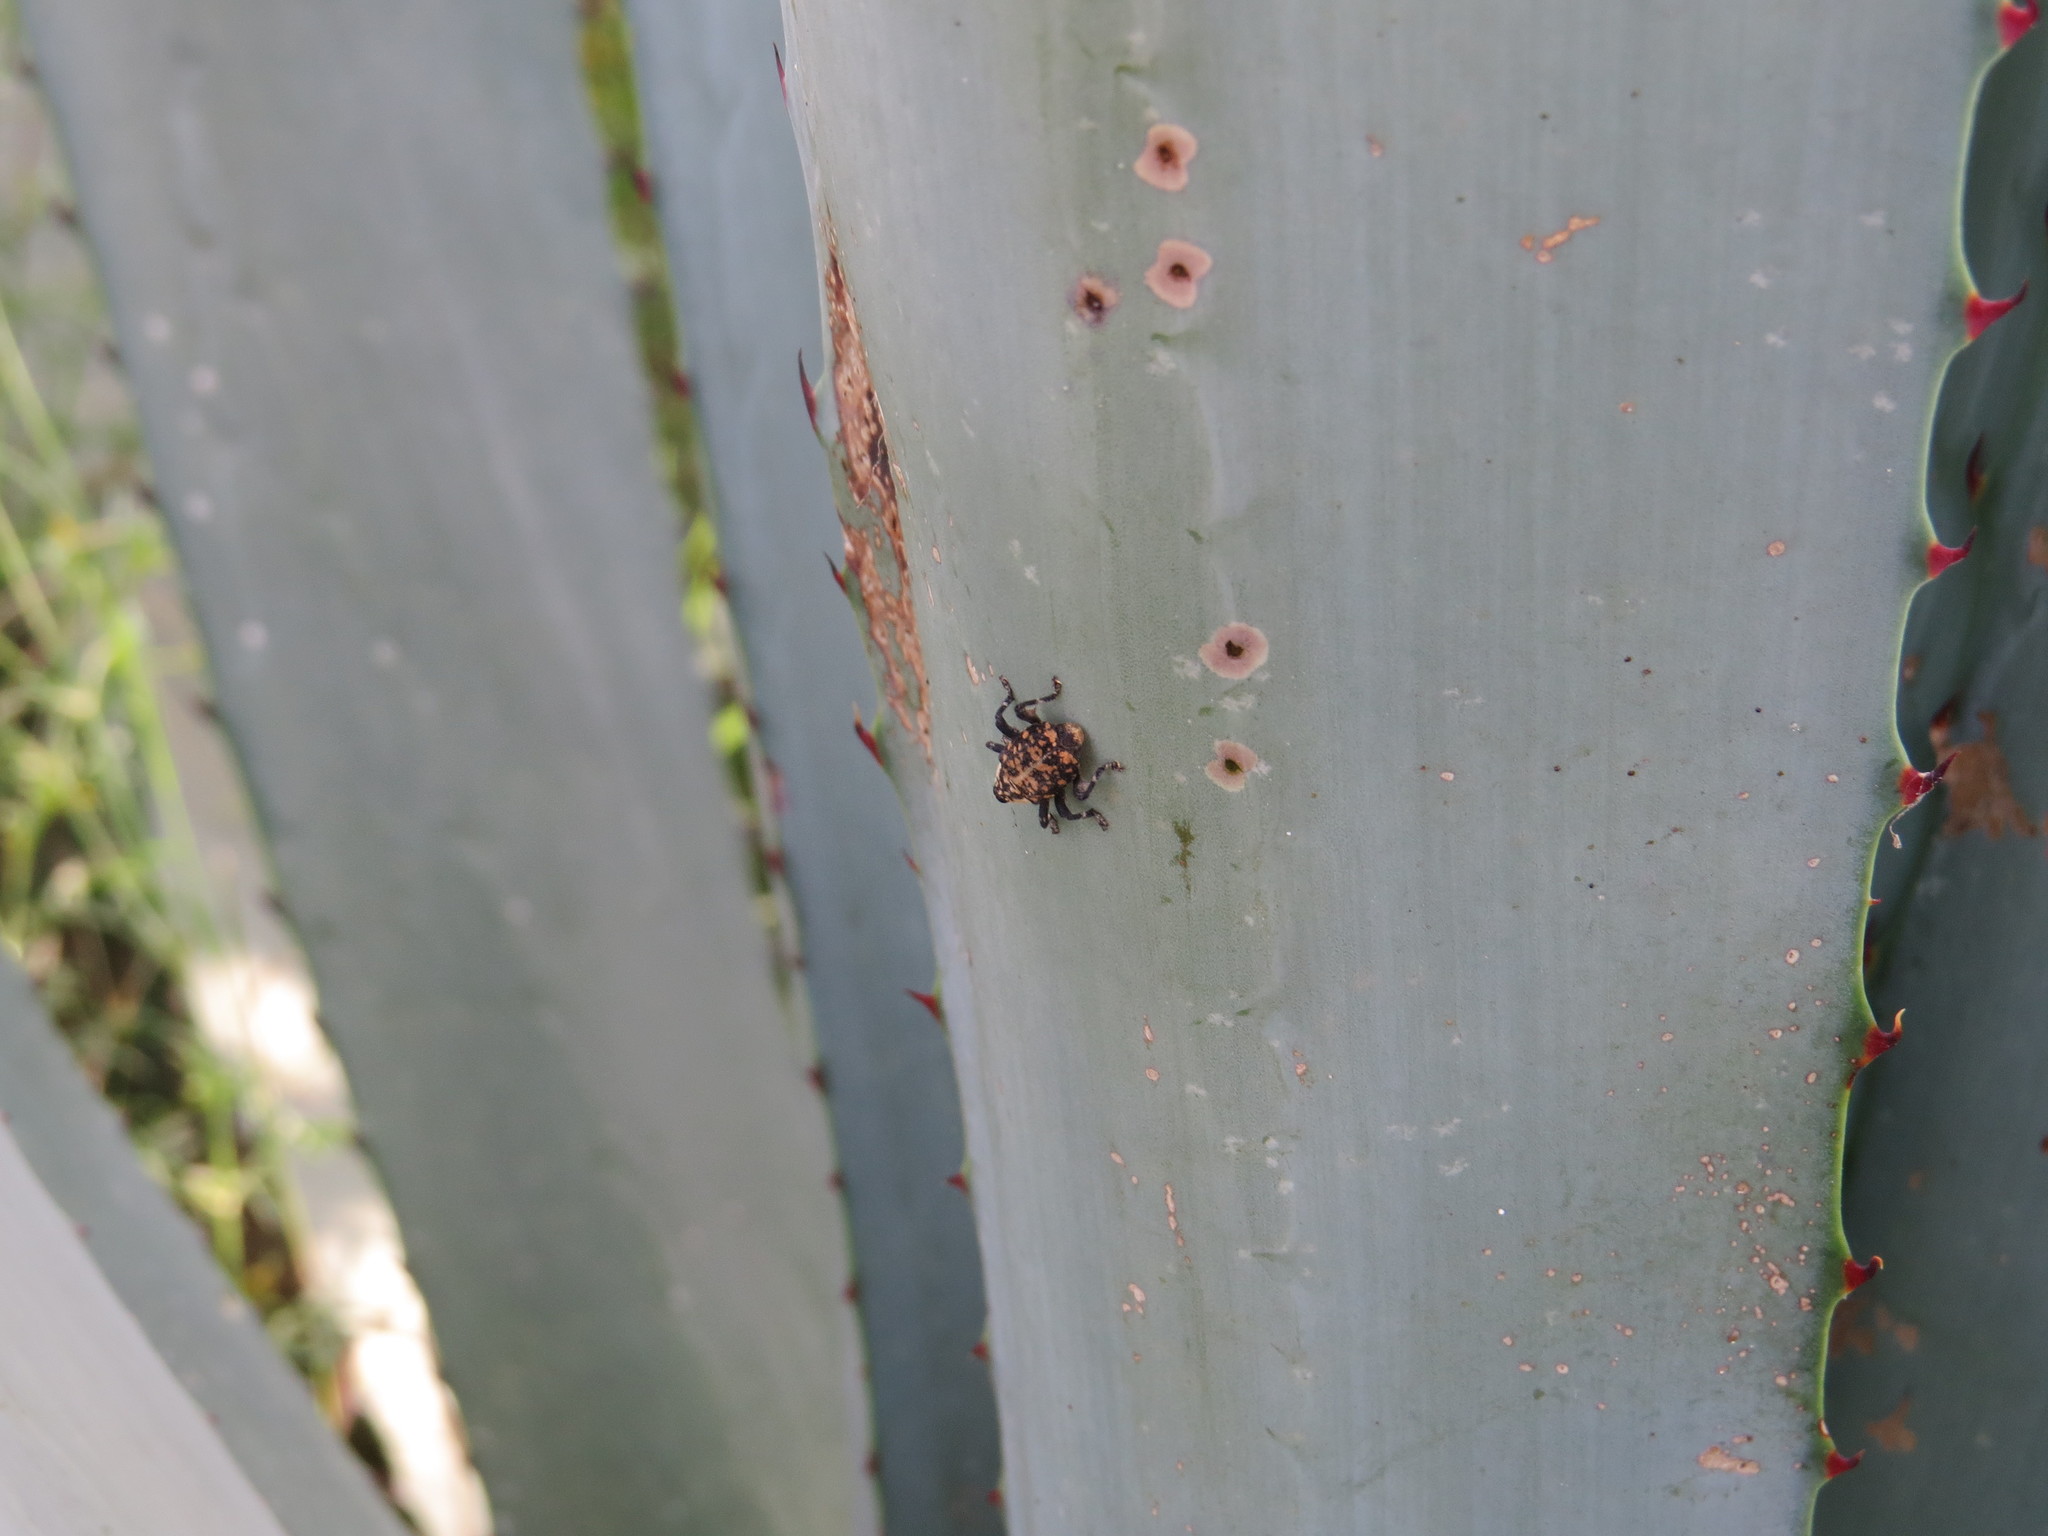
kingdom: Animalia
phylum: Arthropoda
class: Insecta
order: Coleoptera
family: Curculionidae
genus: Peltophorus
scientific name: Peltophorus polymitus
